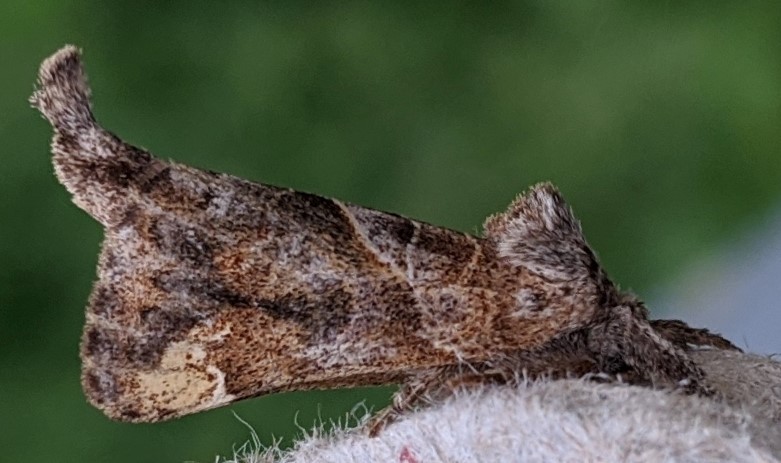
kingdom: Animalia
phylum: Arthropoda
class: Insecta
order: Lepidoptera
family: Notodontidae
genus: Clostera
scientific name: Clostera strigosa
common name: Striped chocolate-tip moth
